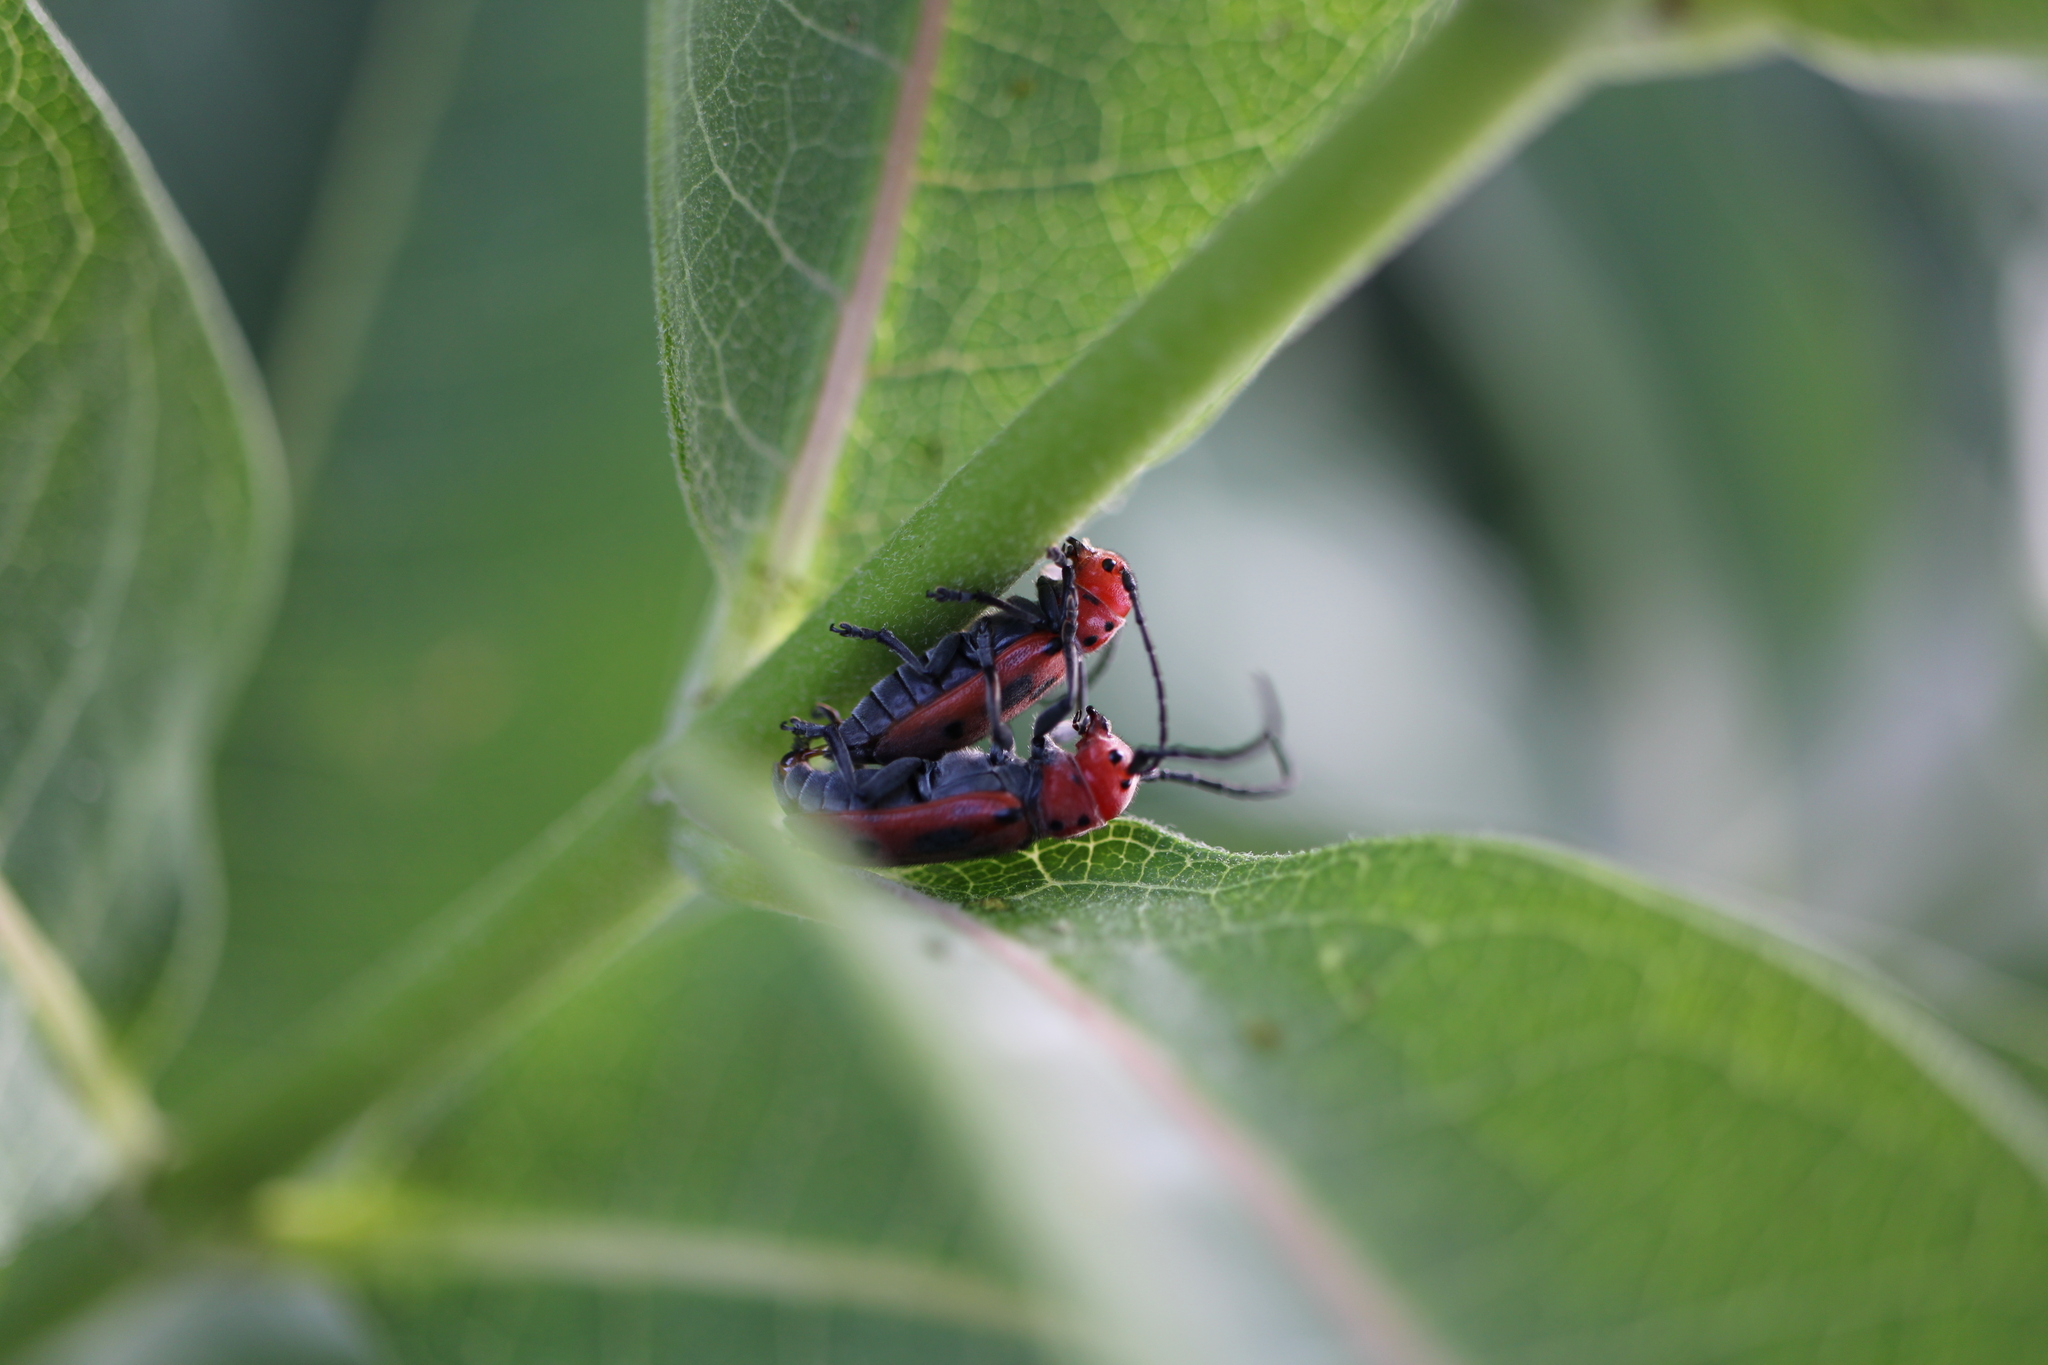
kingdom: Animalia
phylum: Arthropoda
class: Insecta
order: Coleoptera
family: Cerambycidae
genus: Tetraopes
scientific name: Tetraopes tetrophthalmus
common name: Red milkweed beetle
